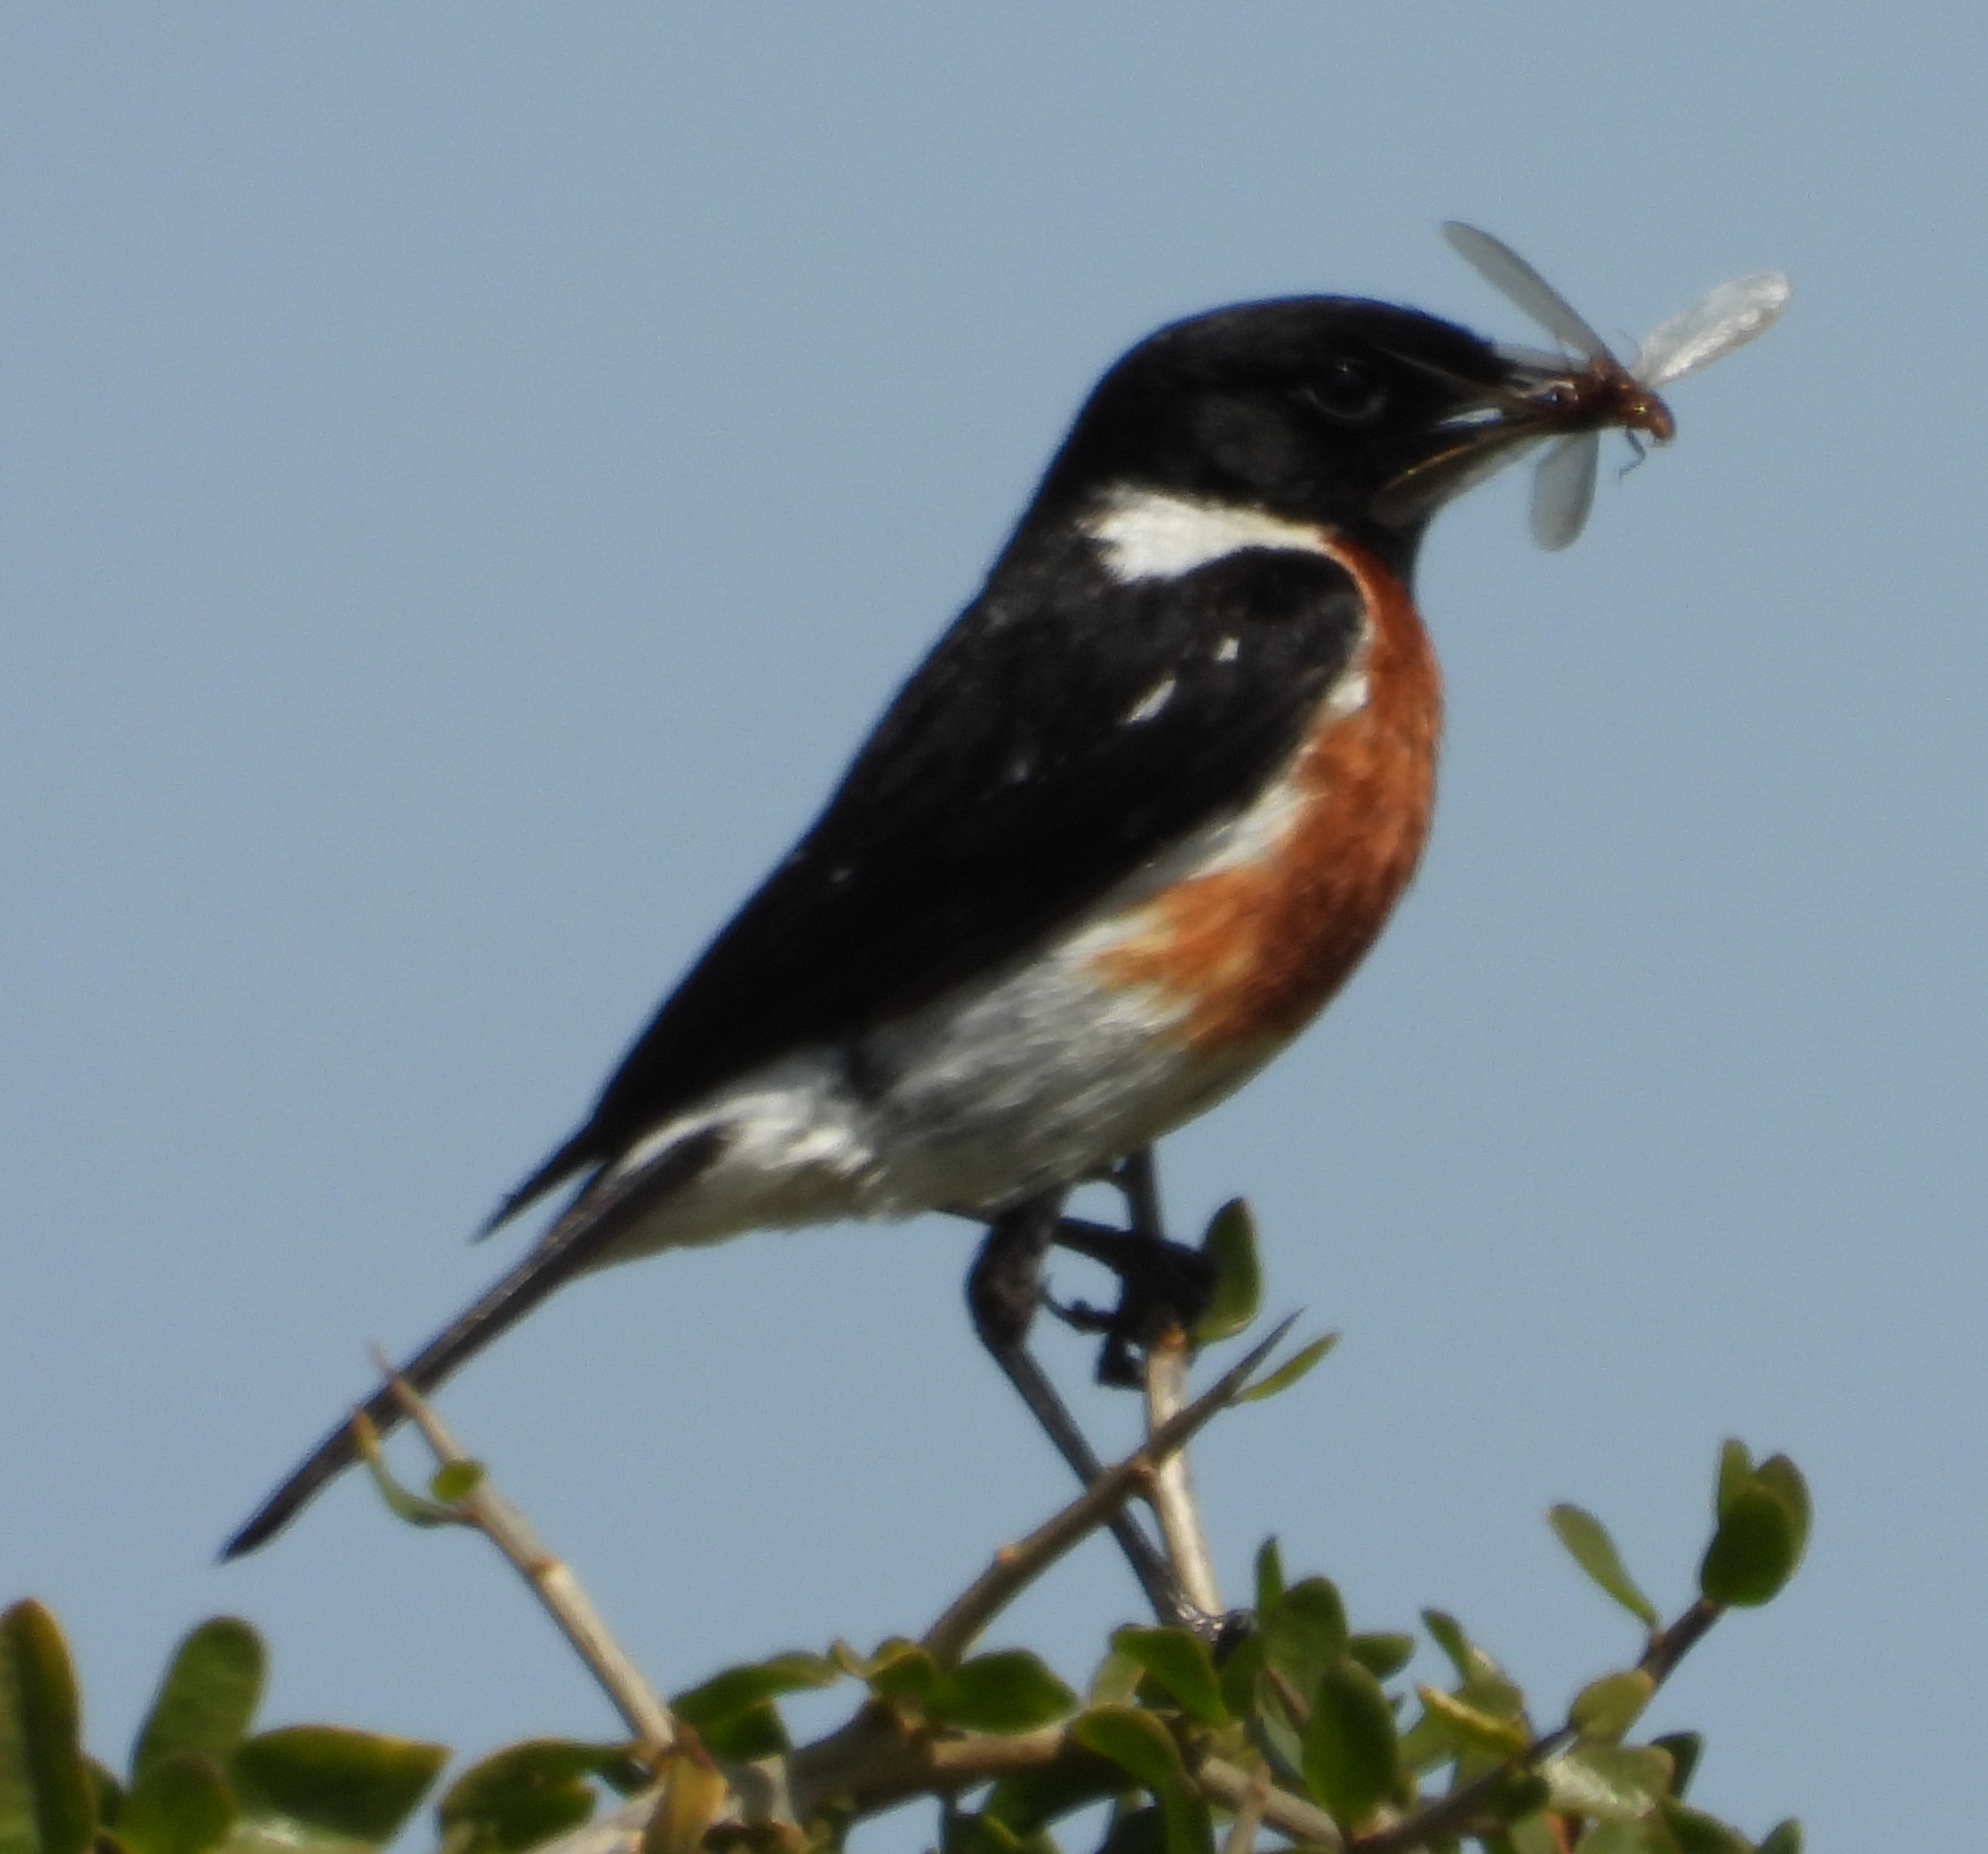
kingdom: Animalia
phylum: Chordata
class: Aves
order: Passeriformes
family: Muscicapidae
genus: Saxicola
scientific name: Saxicola torquatus
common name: African stonechat
